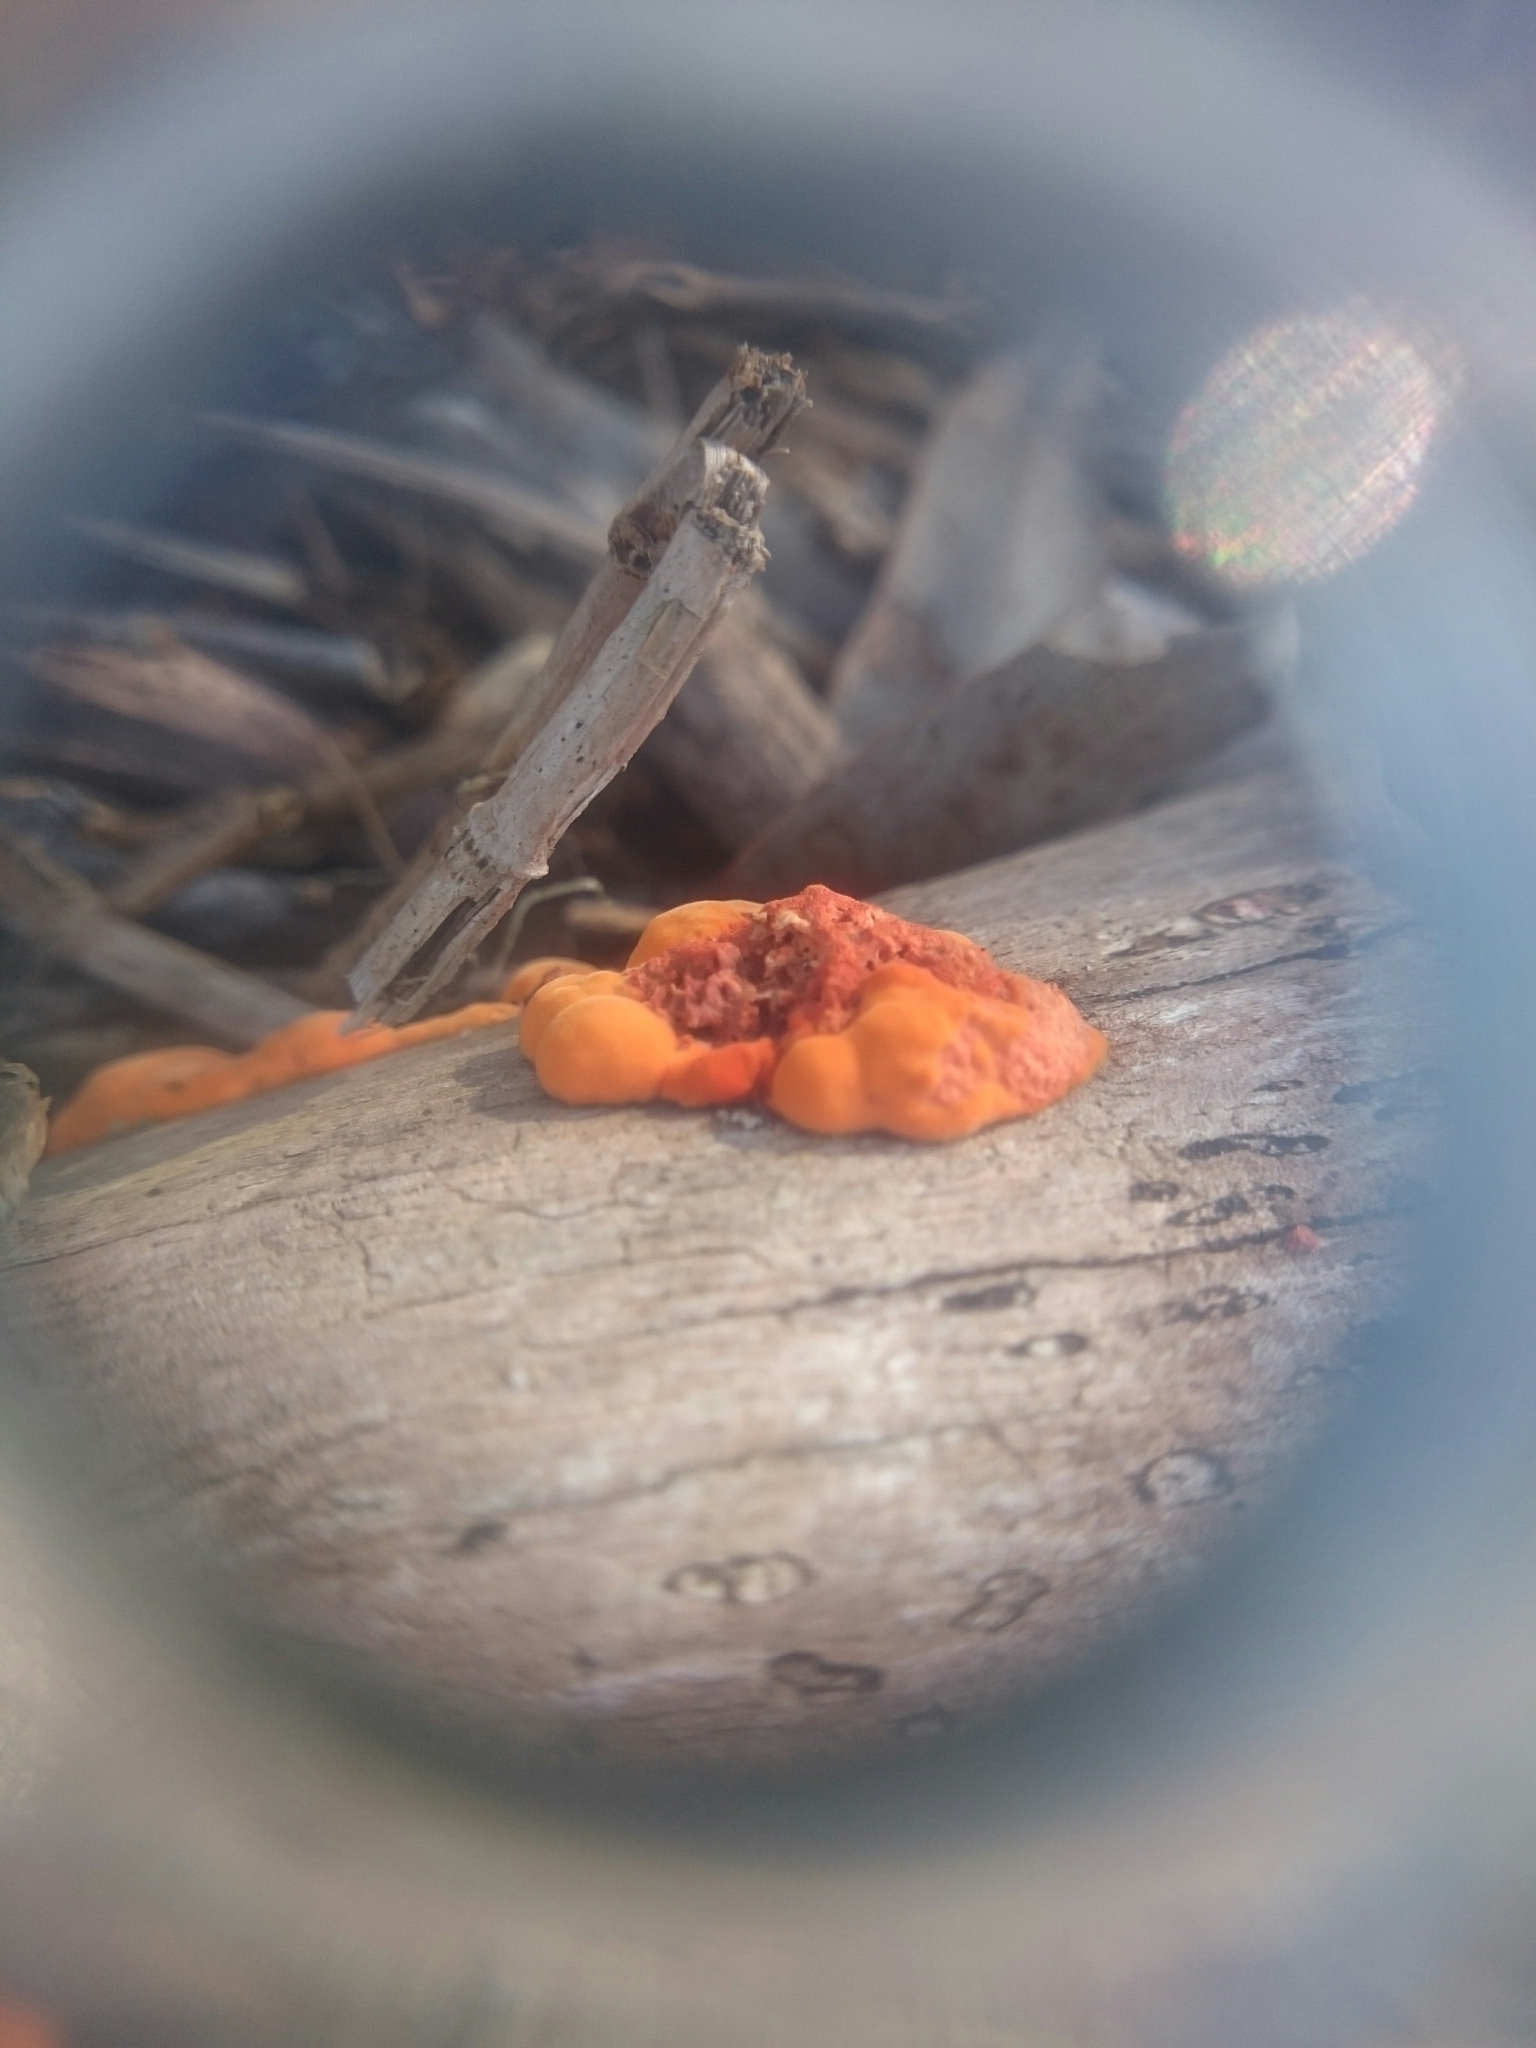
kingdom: Fungi
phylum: Basidiomycota
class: Agaricomycetes
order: Polyporales
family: Polyporaceae
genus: Trametes
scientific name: Trametes coccinea
